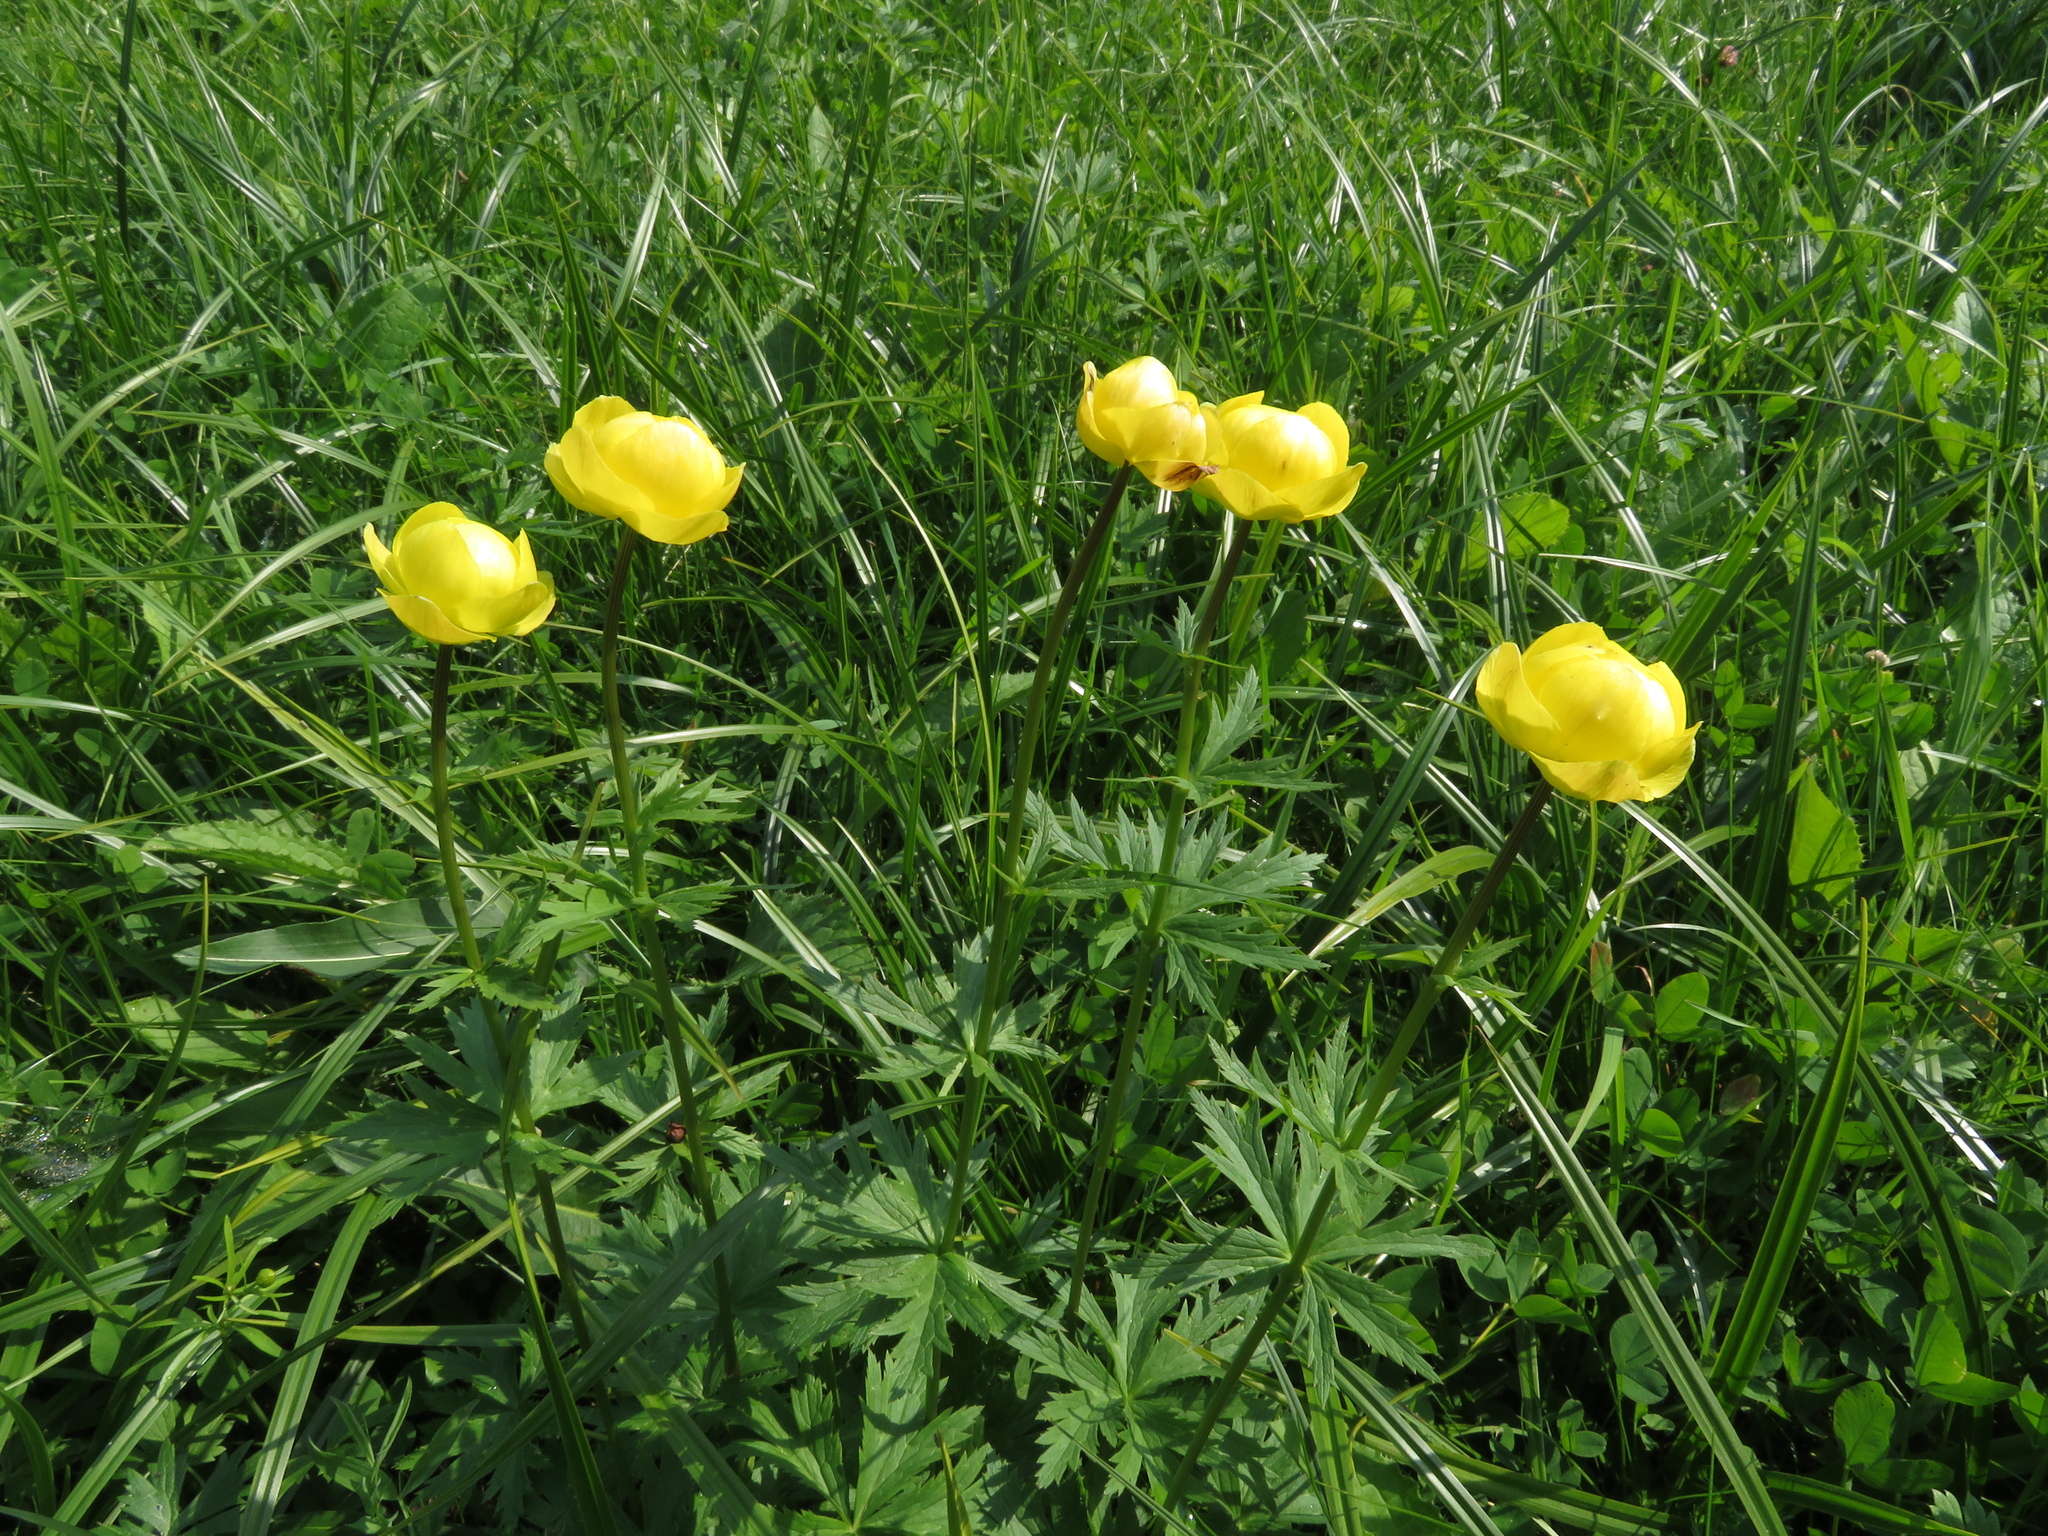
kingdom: Plantae
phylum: Tracheophyta
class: Magnoliopsida
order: Ranunculales
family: Ranunculaceae
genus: Trollius
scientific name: Trollius europaeus
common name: European globeflower
